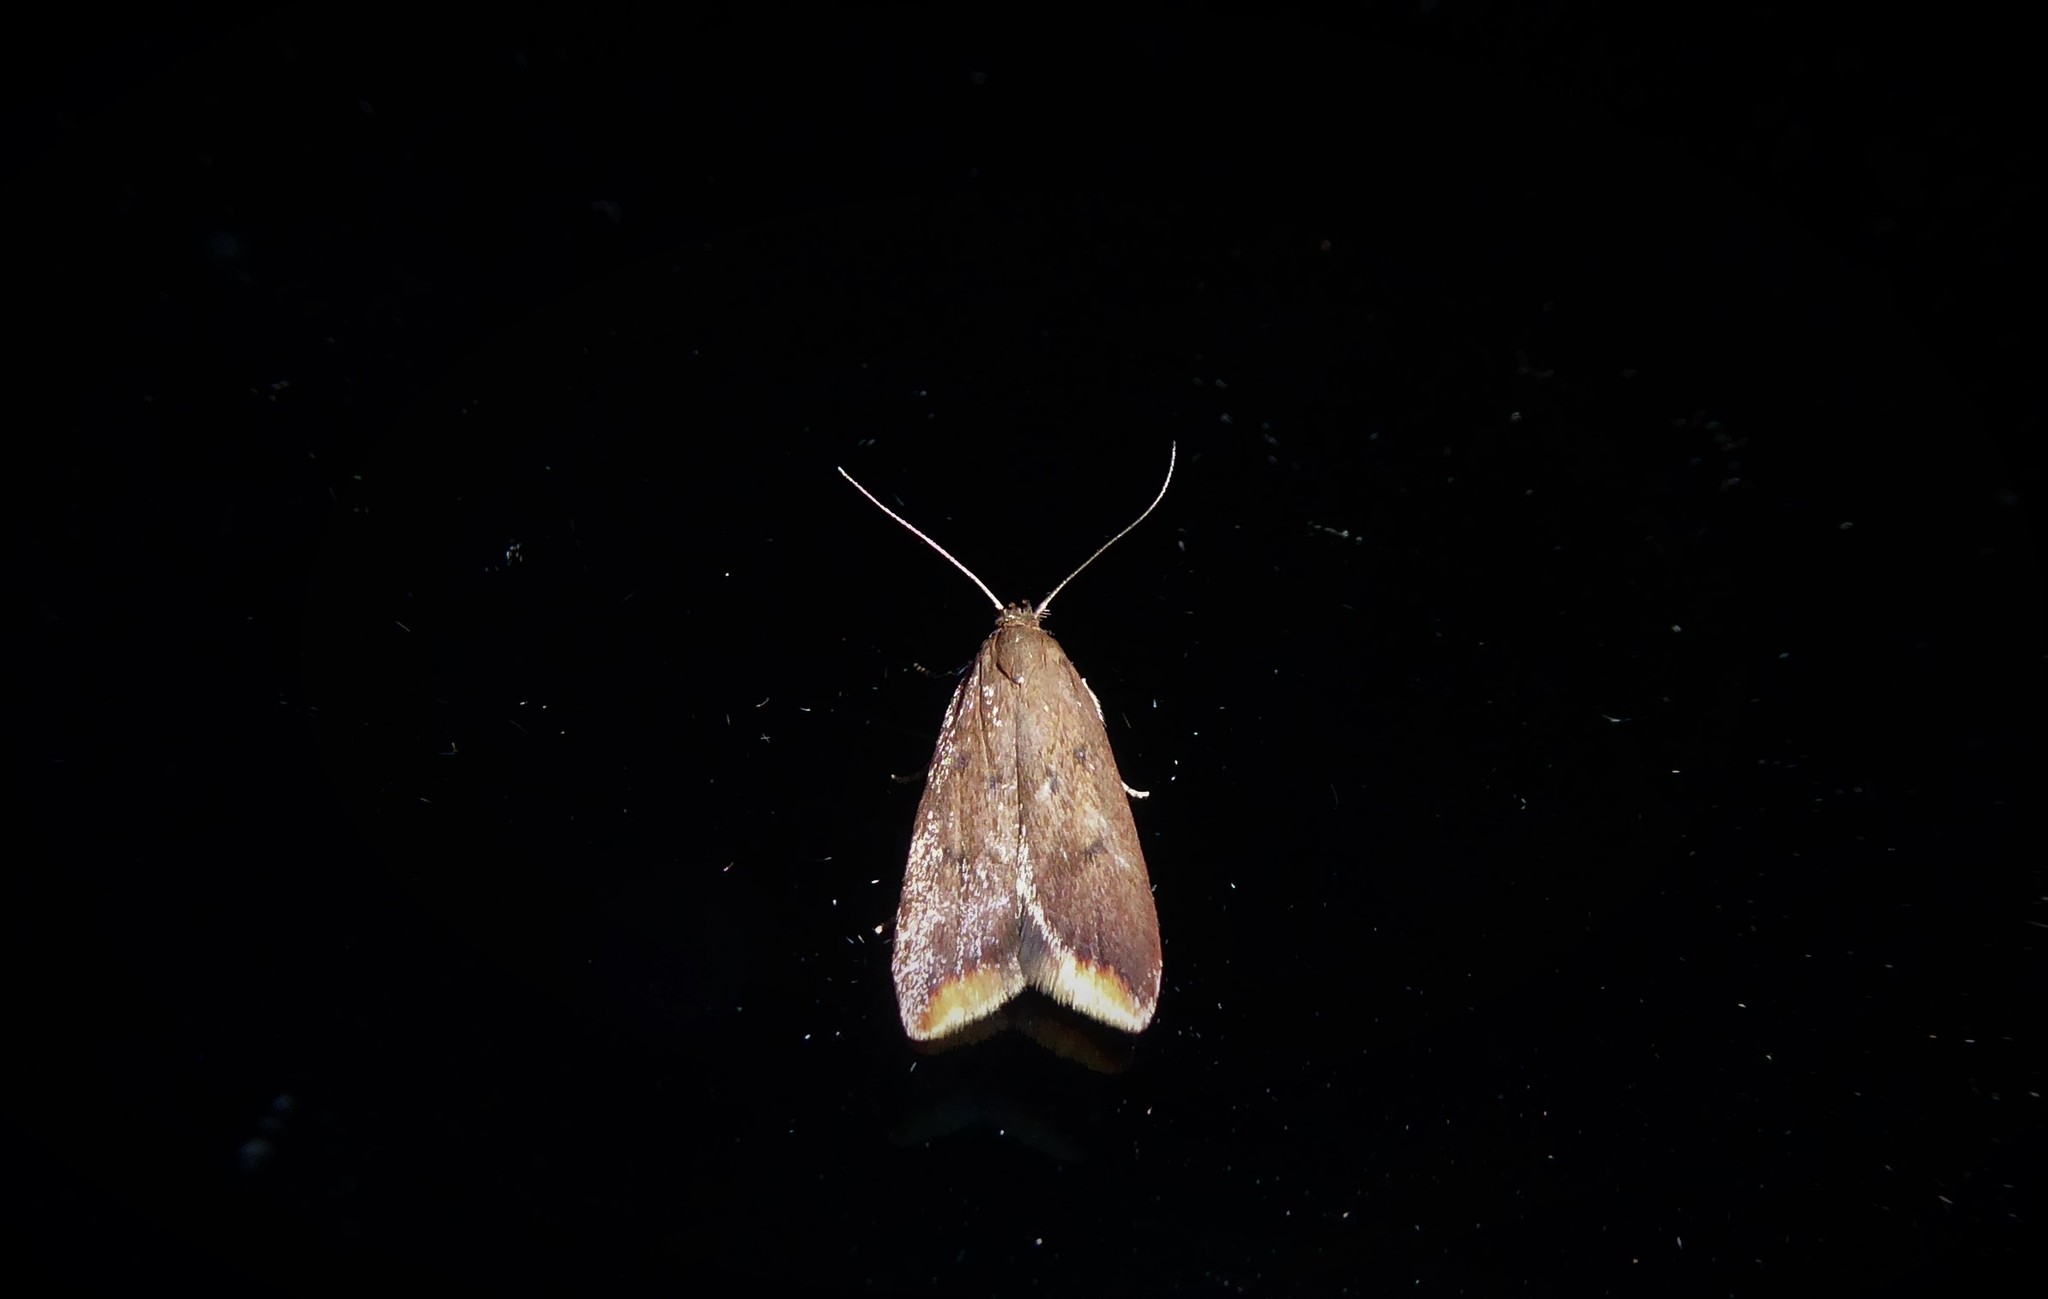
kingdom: Animalia
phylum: Arthropoda
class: Insecta
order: Lepidoptera
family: Oecophoridae
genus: Tachystola
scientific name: Tachystola acroxantha
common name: Ruddy streak
